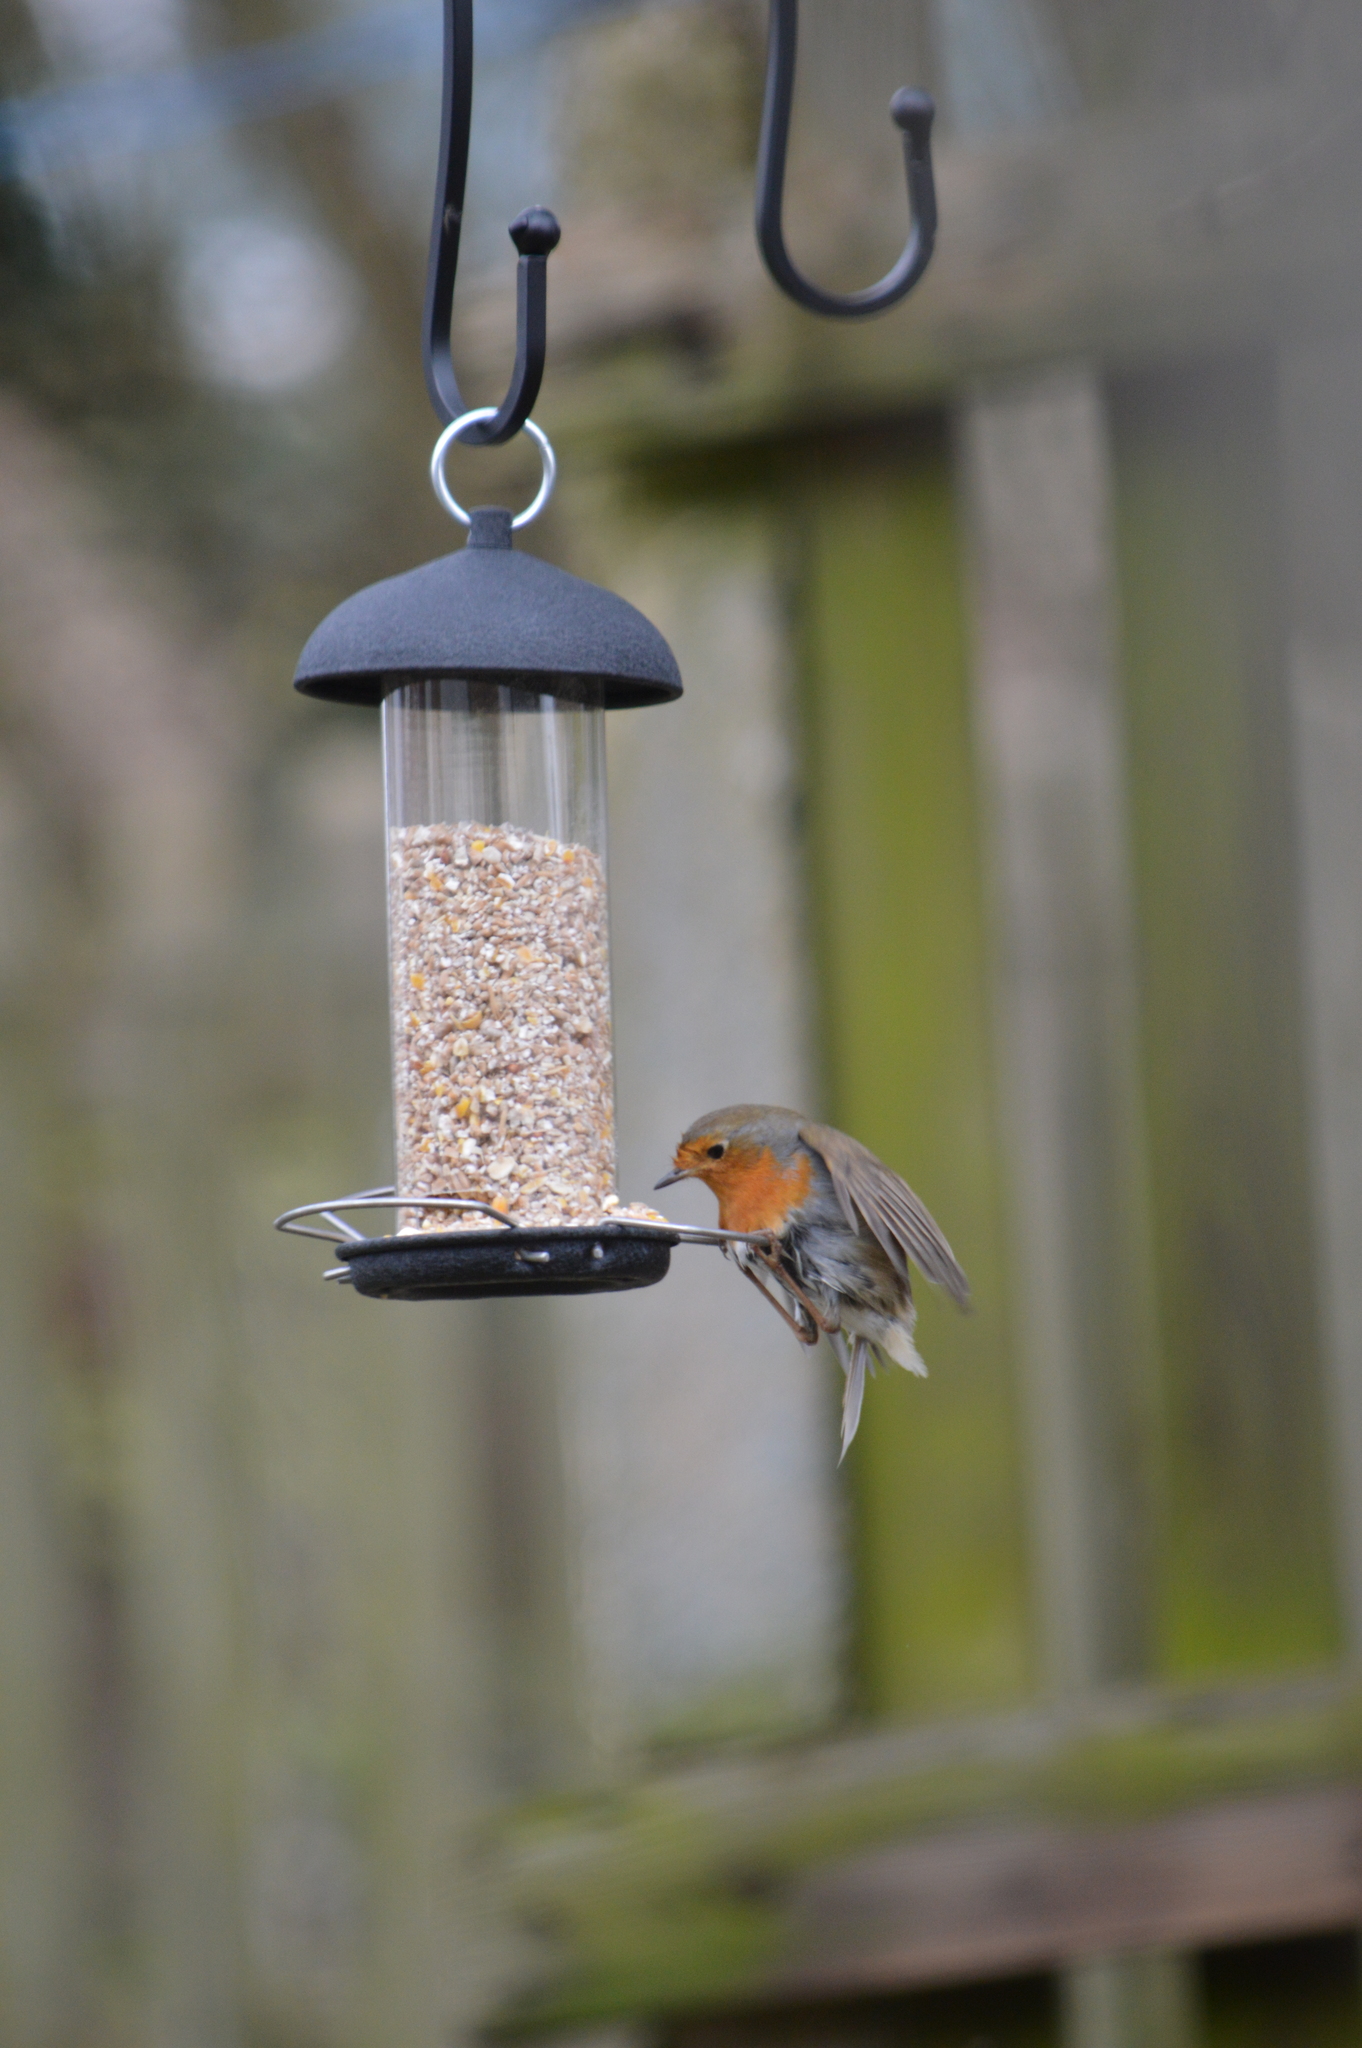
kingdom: Animalia
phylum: Chordata
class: Aves
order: Passeriformes
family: Muscicapidae
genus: Erithacus
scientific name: Erithacus rubecula
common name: European robin
